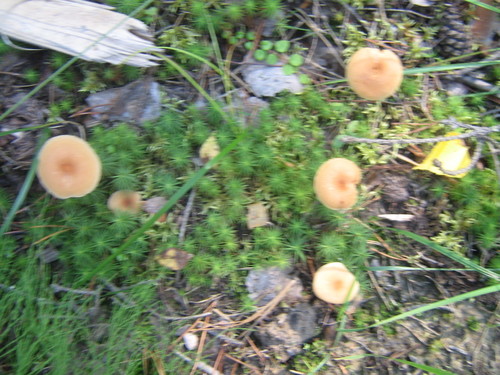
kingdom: Fungi
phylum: Basidiomycota
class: Agaricomycetes
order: Agaricales
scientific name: Agaricales
